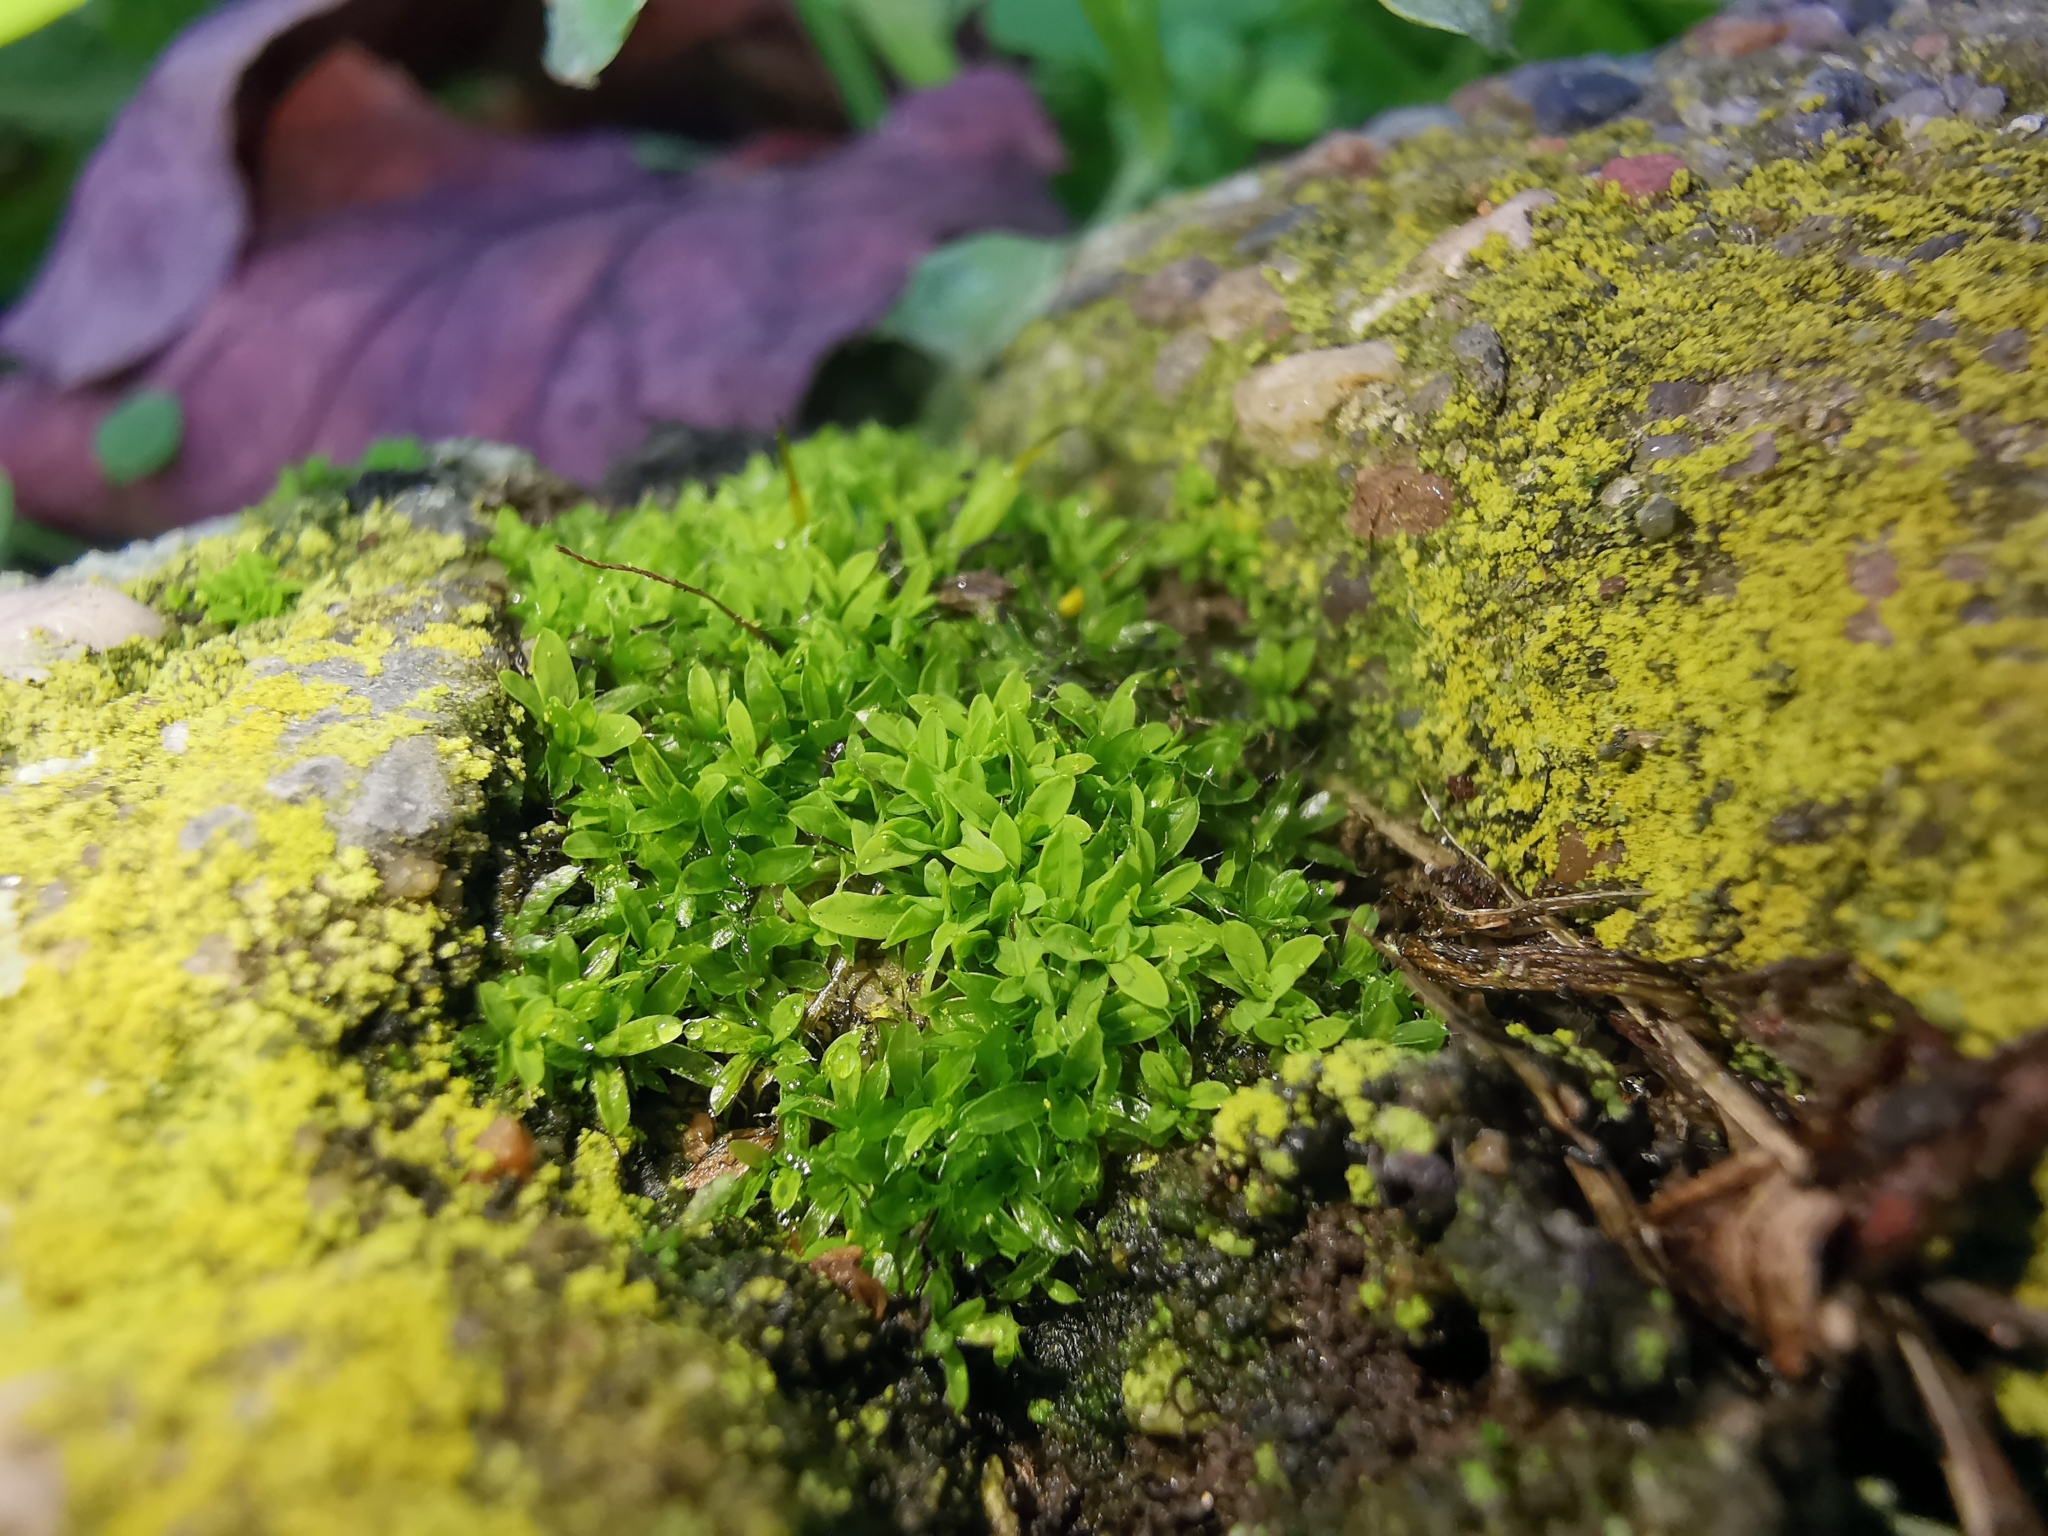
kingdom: Plantae
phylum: Bryophyta
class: Bryopsida
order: Pottiales
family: Pottiaceae
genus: Tortula
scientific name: Tortula muralis
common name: Wall screw-moss
